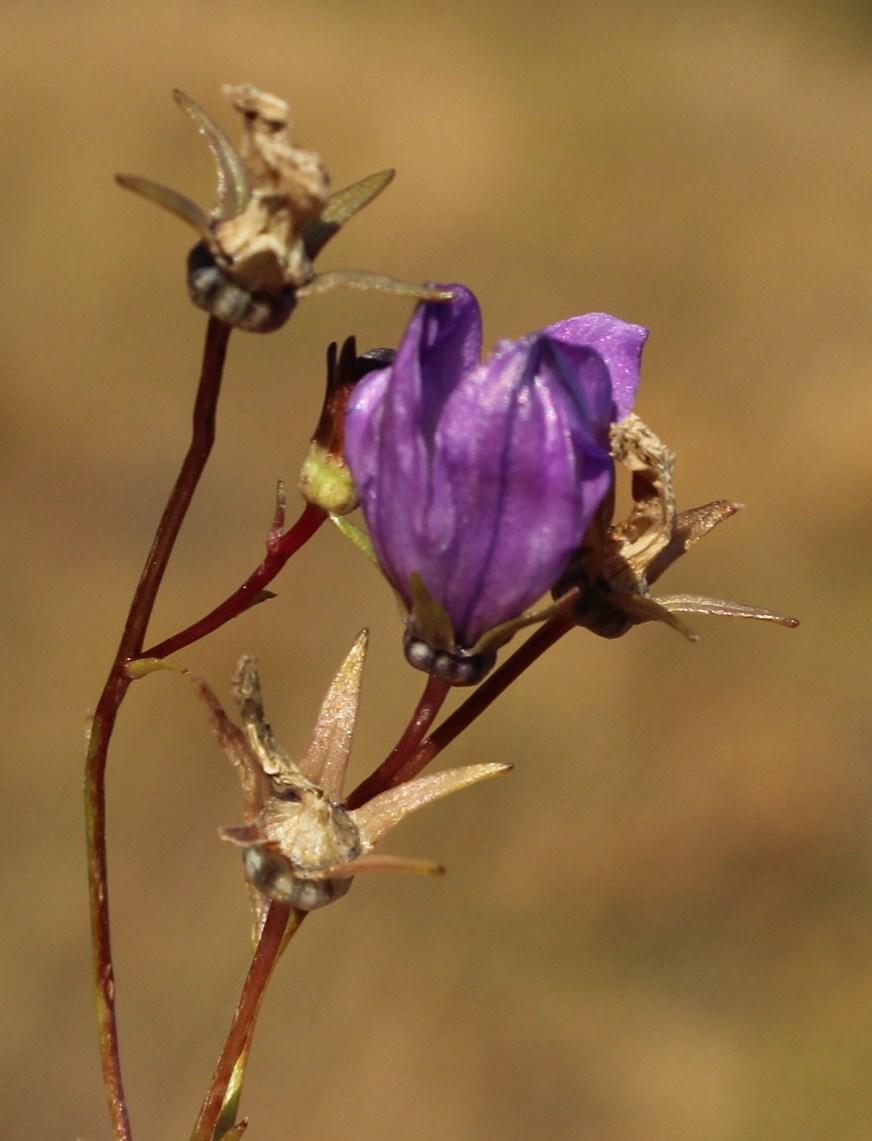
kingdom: Plantae
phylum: Tracheophyta
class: Magnoliopsida
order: Asterales
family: Campanulaceae
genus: Wahlenbergia
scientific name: Wahlenbergia undulata
